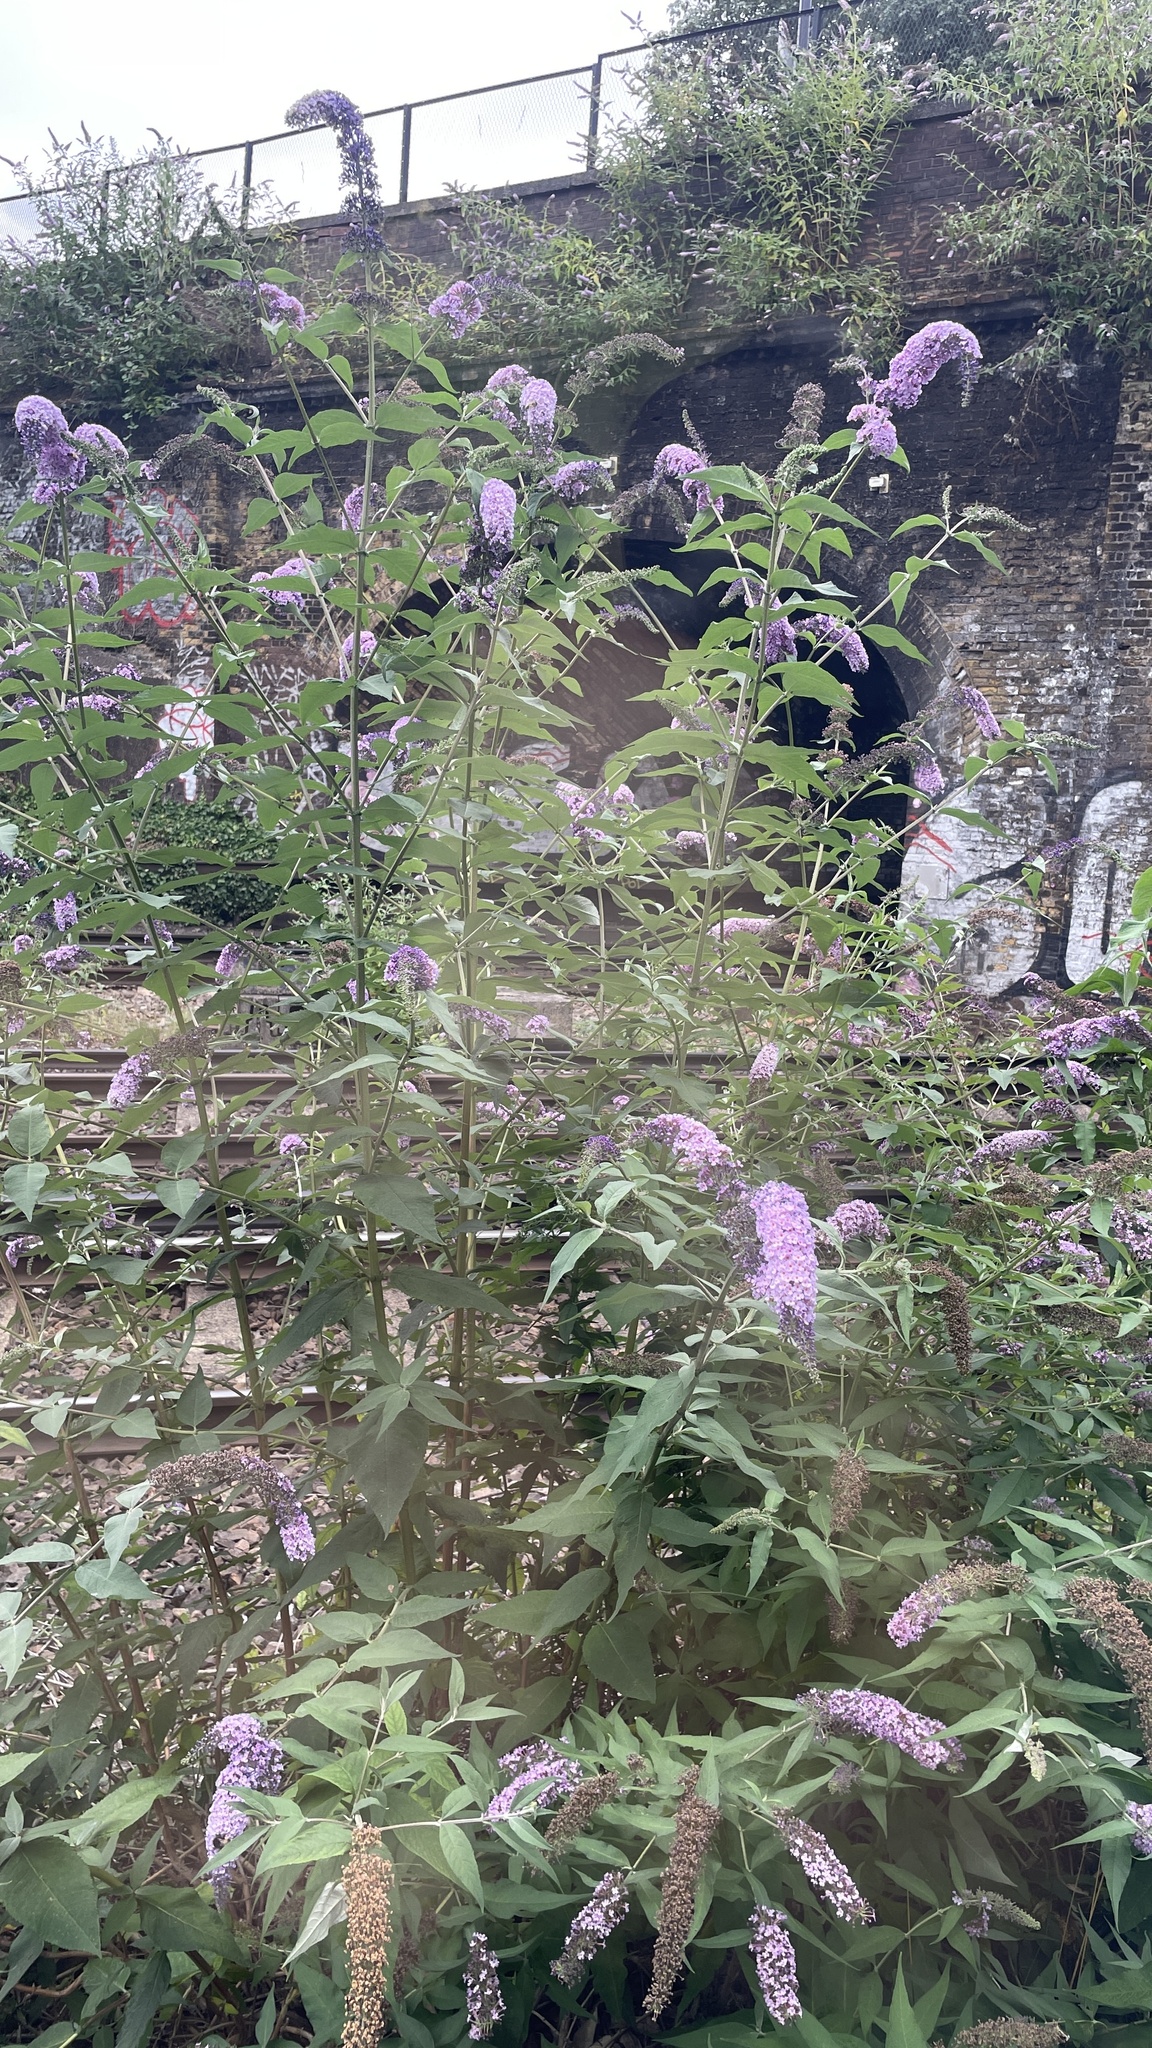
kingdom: Plantae
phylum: Tracheophyta
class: Magnoliopsida
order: Lamiales
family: Scrophulariaceae
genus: Buddleja
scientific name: Buddleja davidii
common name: Butterfly-bush
